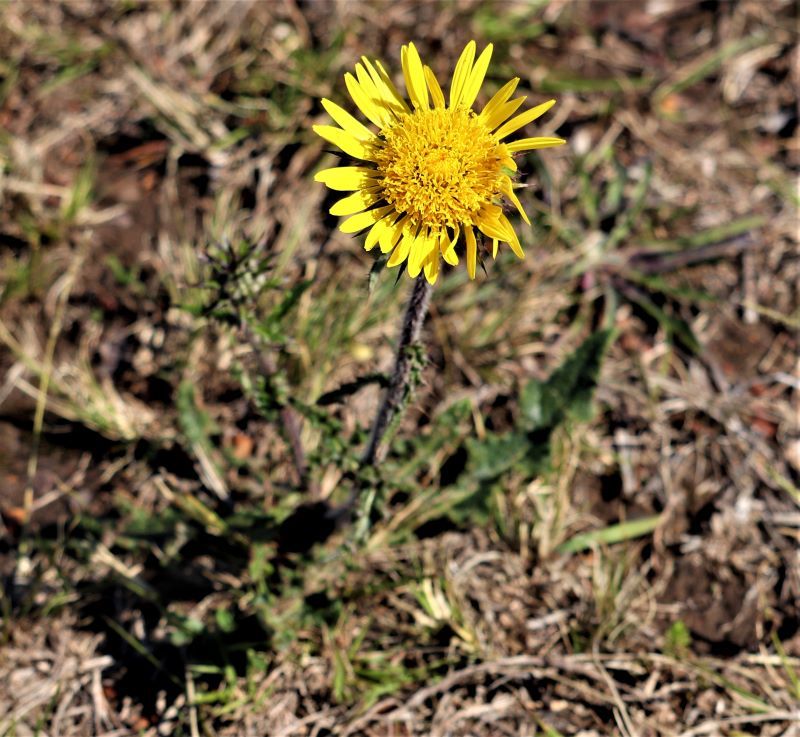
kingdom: Plantae
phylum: Tracheophyta
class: Magnoliopsida
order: Asterales
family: Asteraceae
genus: Berkheya
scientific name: Berkheya decurrens
